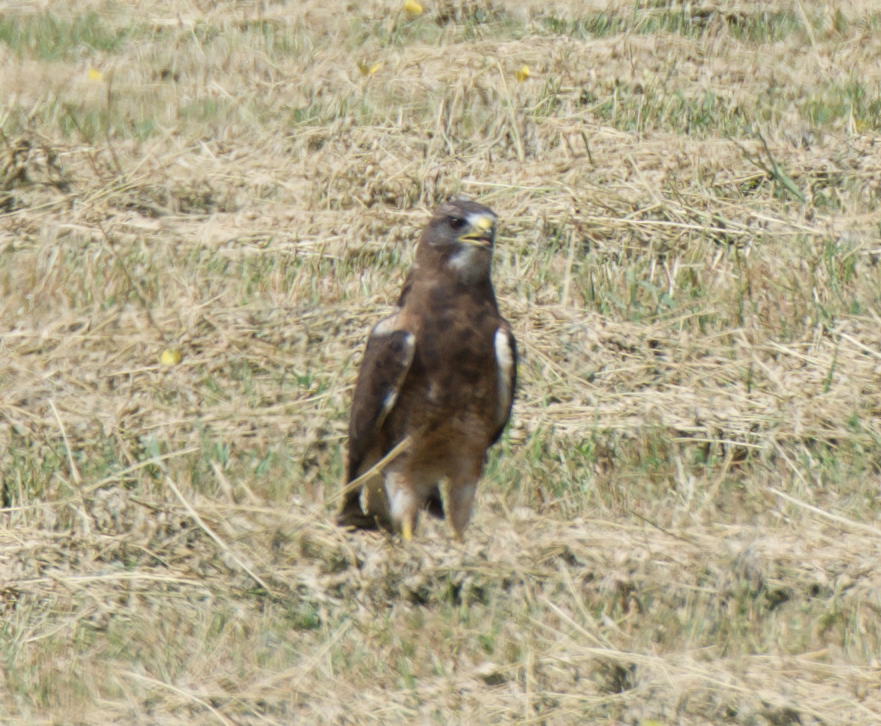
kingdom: Animalia
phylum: Chordata
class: Aves
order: Accipitriformes
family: Accipitridae
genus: Buteo
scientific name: Buteo swainsoni
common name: Swainson's hawk
